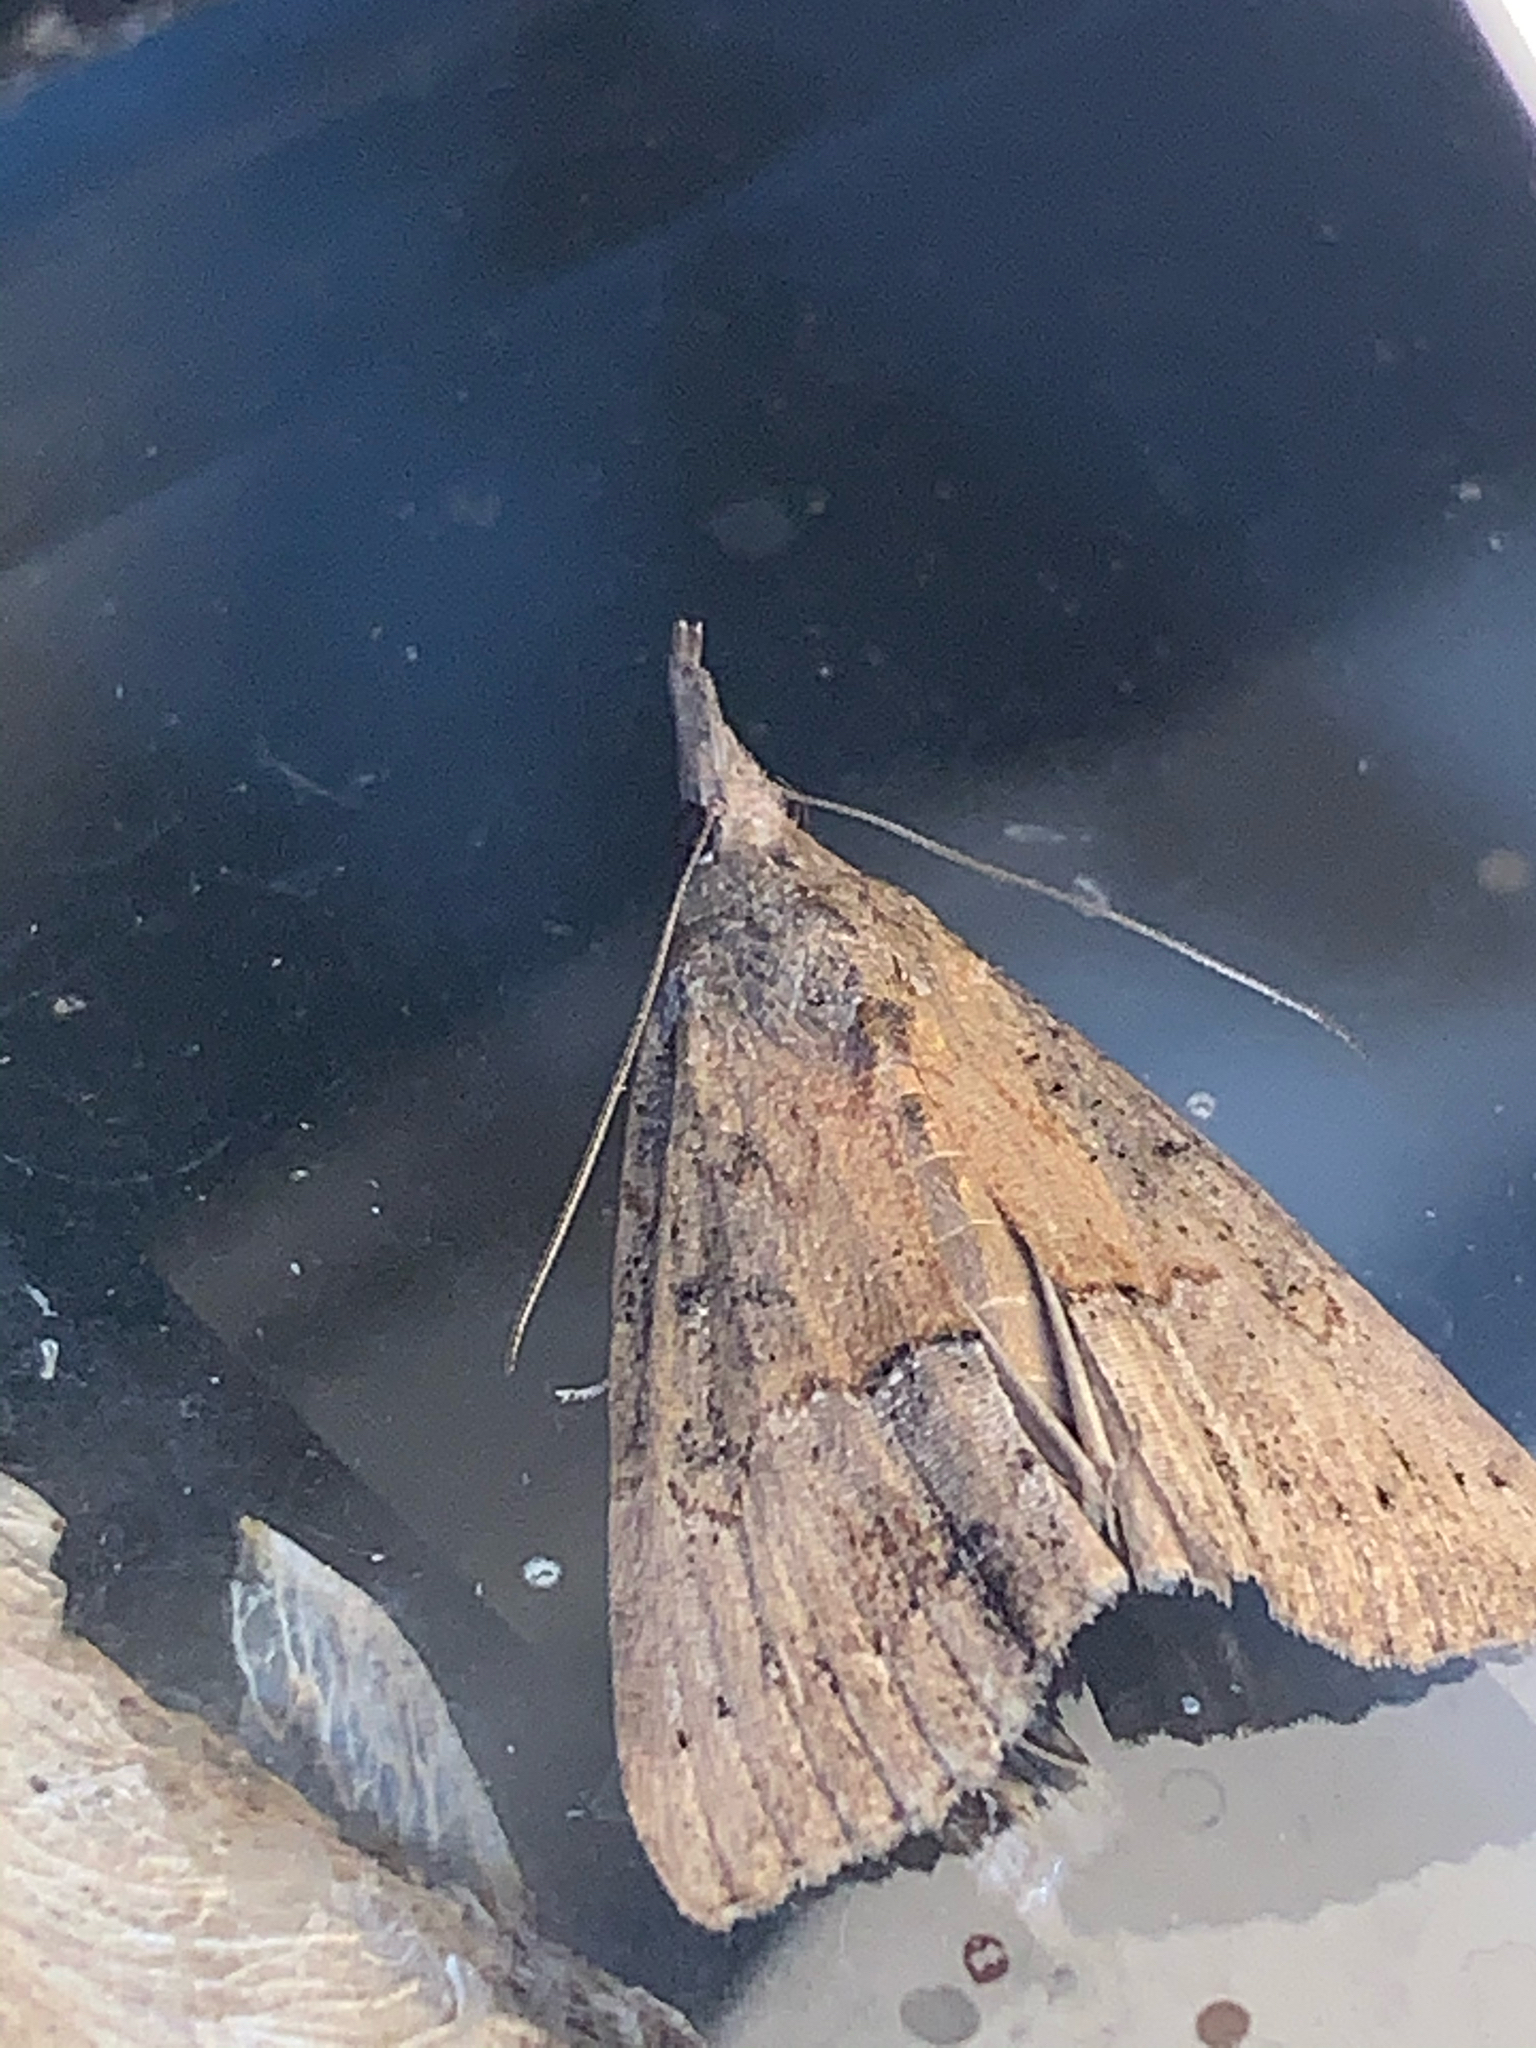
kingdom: Animalia
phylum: Arthropoda
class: Insecta
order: Lepidoptera
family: Erebidae
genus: Hypena
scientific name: Hypena scabra
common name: Green cloverworm
